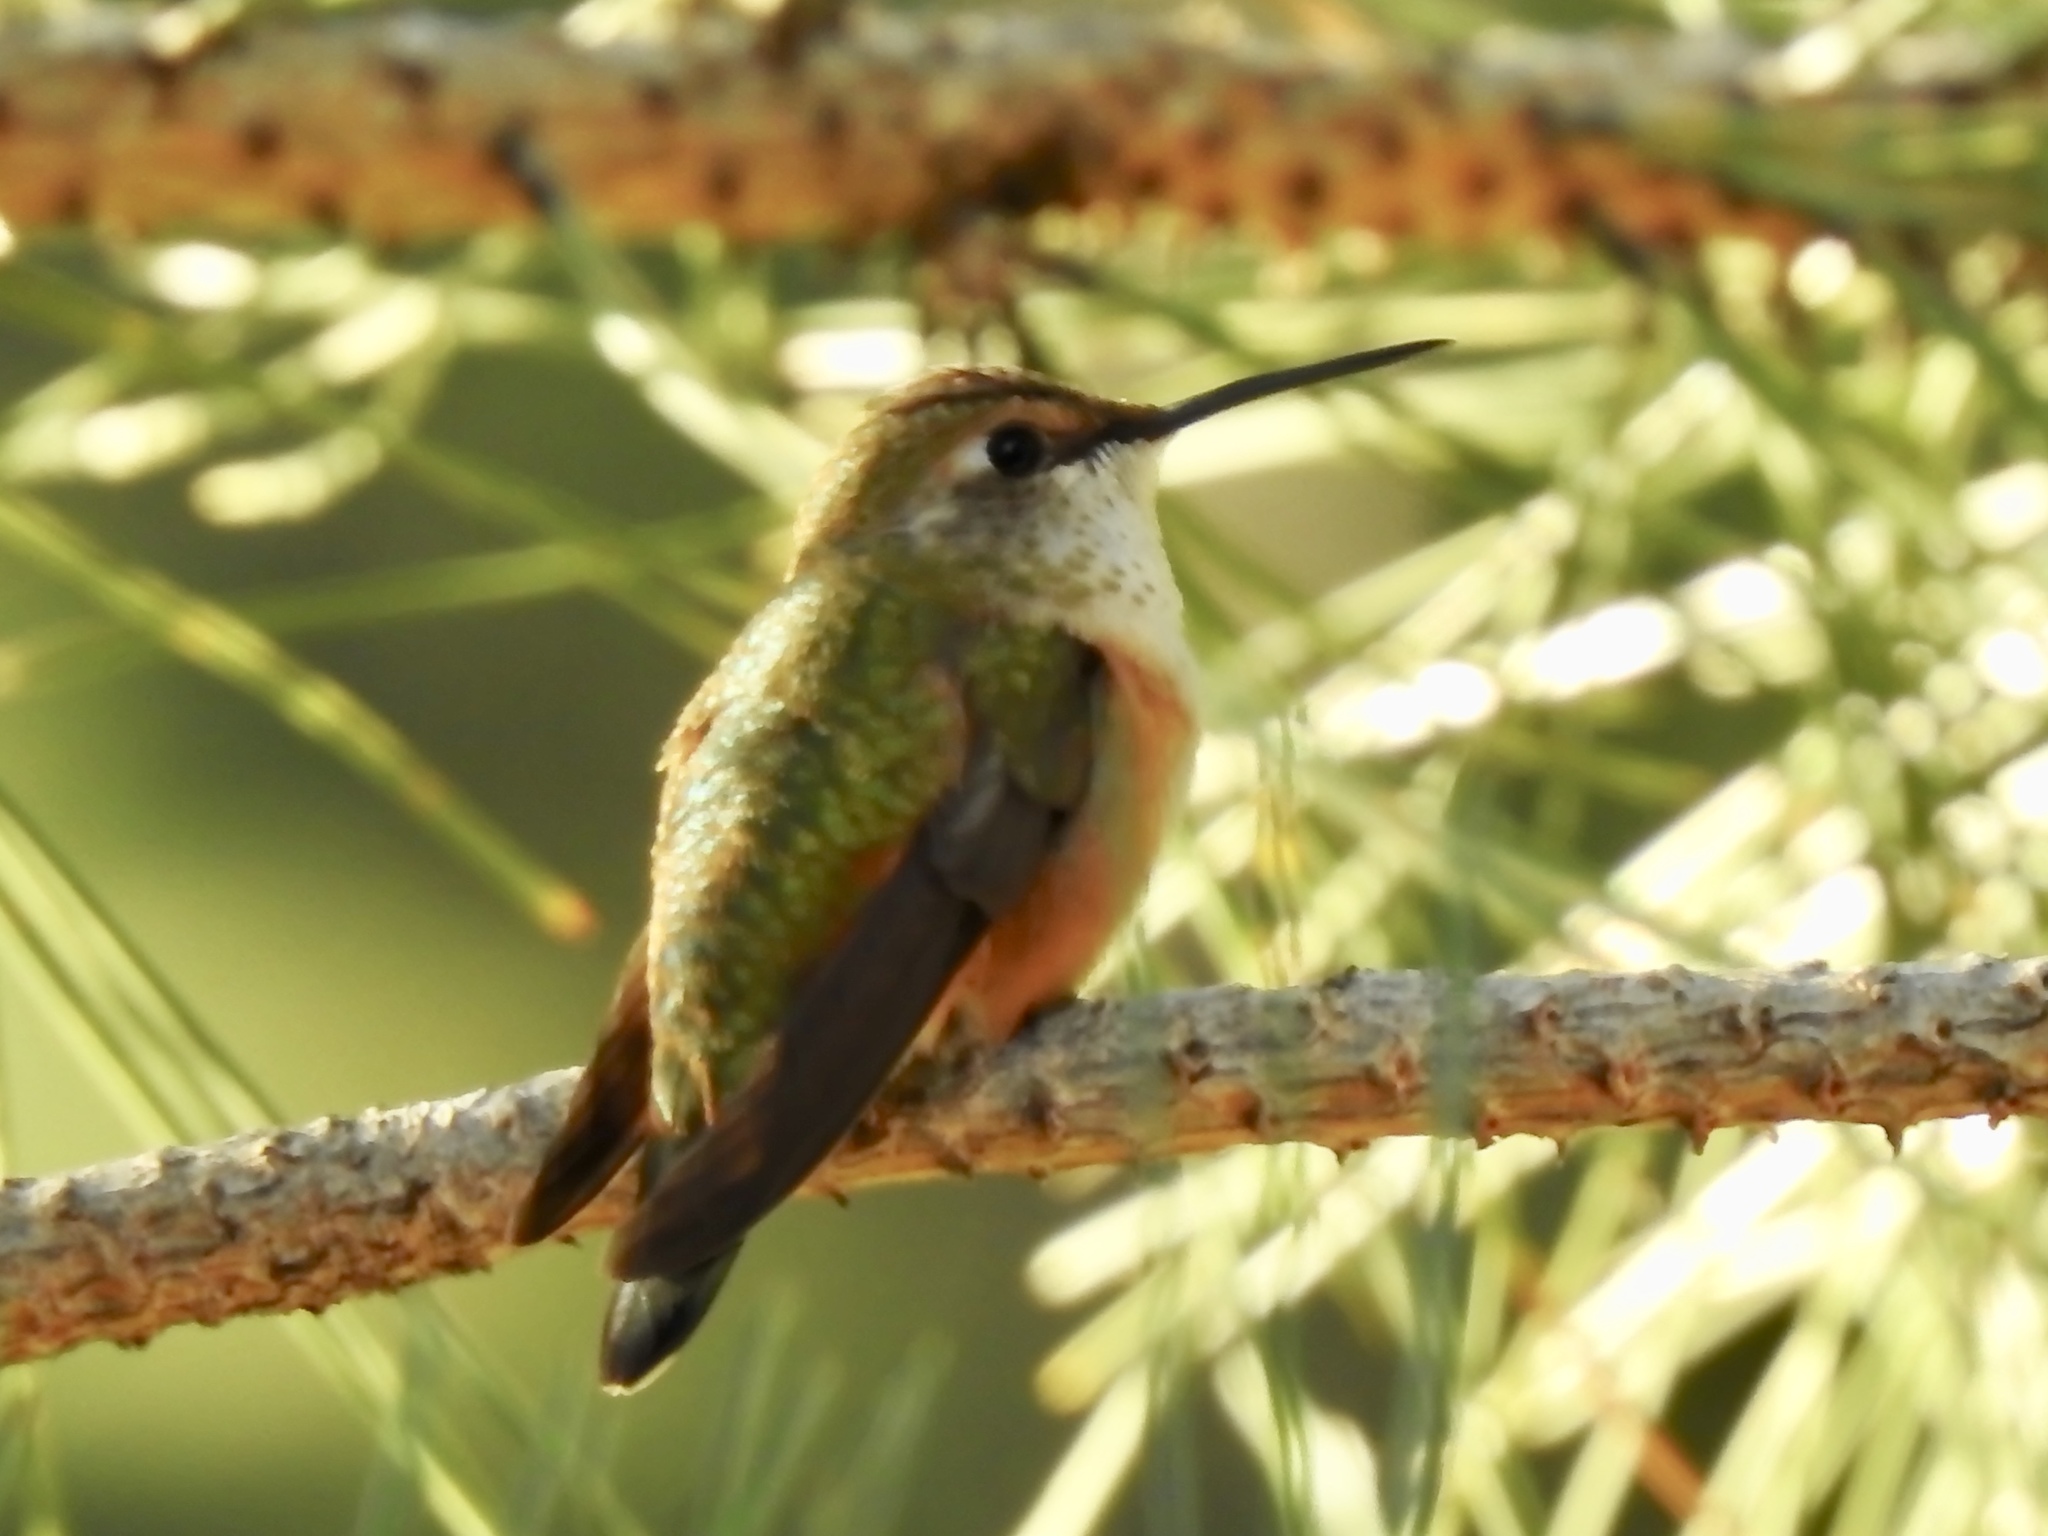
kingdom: Animalia
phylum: Chordata
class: Aves
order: Apodiformes
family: Trochilidae
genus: Selasphorus
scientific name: Selasphorus rufus
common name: Rufous hummingbird
